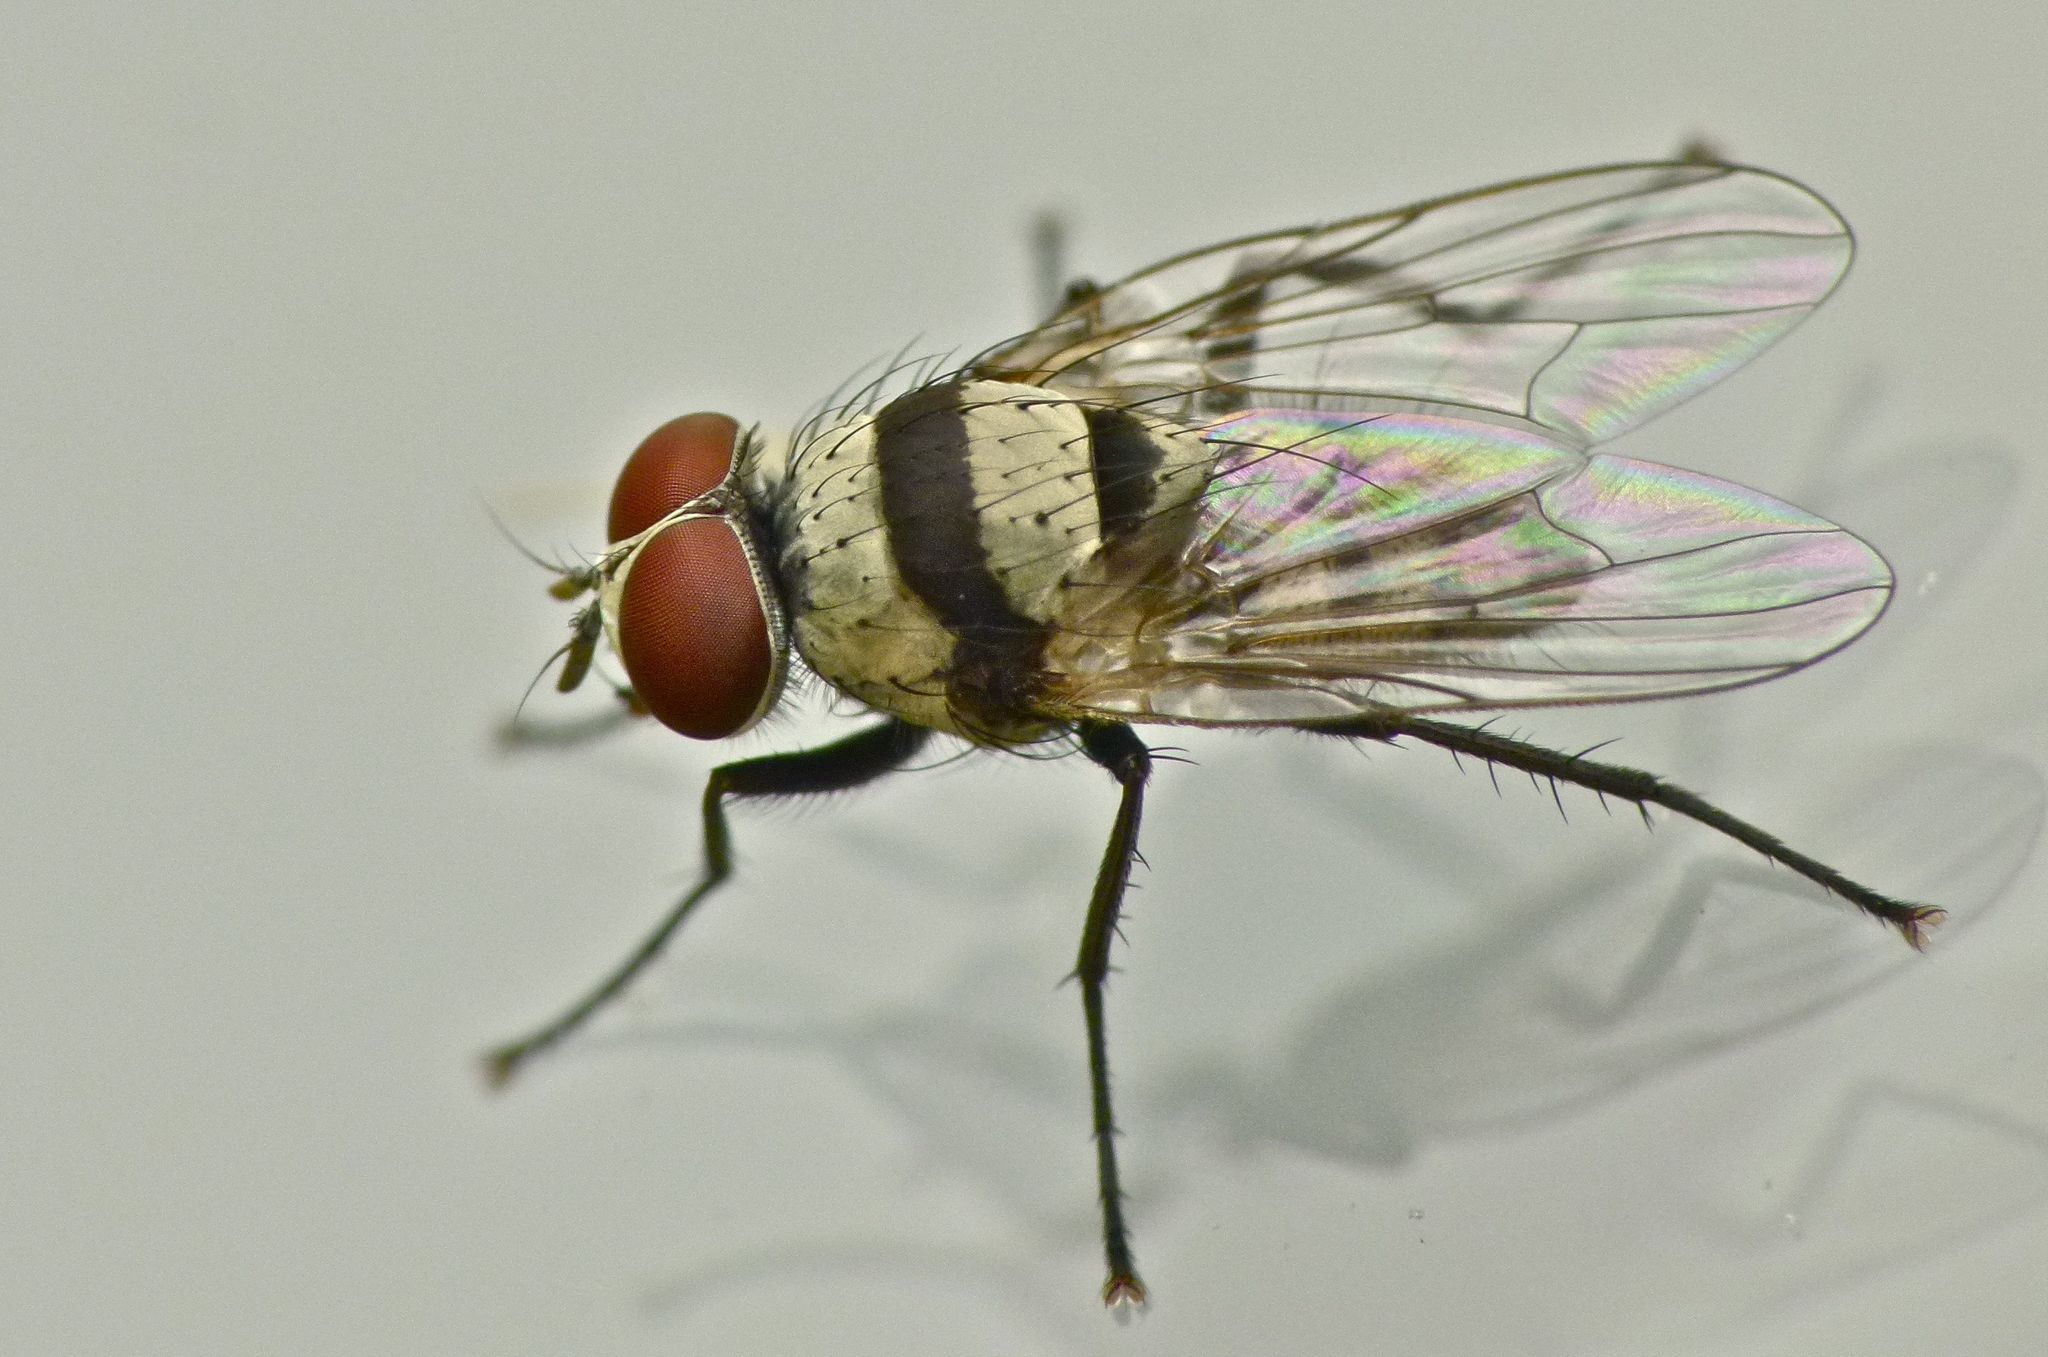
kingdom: Animalia
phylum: Arthropoda
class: Insecta
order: Diptera
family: Anthomyiidae
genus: Anthomyia
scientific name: Anthomyia illocata
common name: Fly
